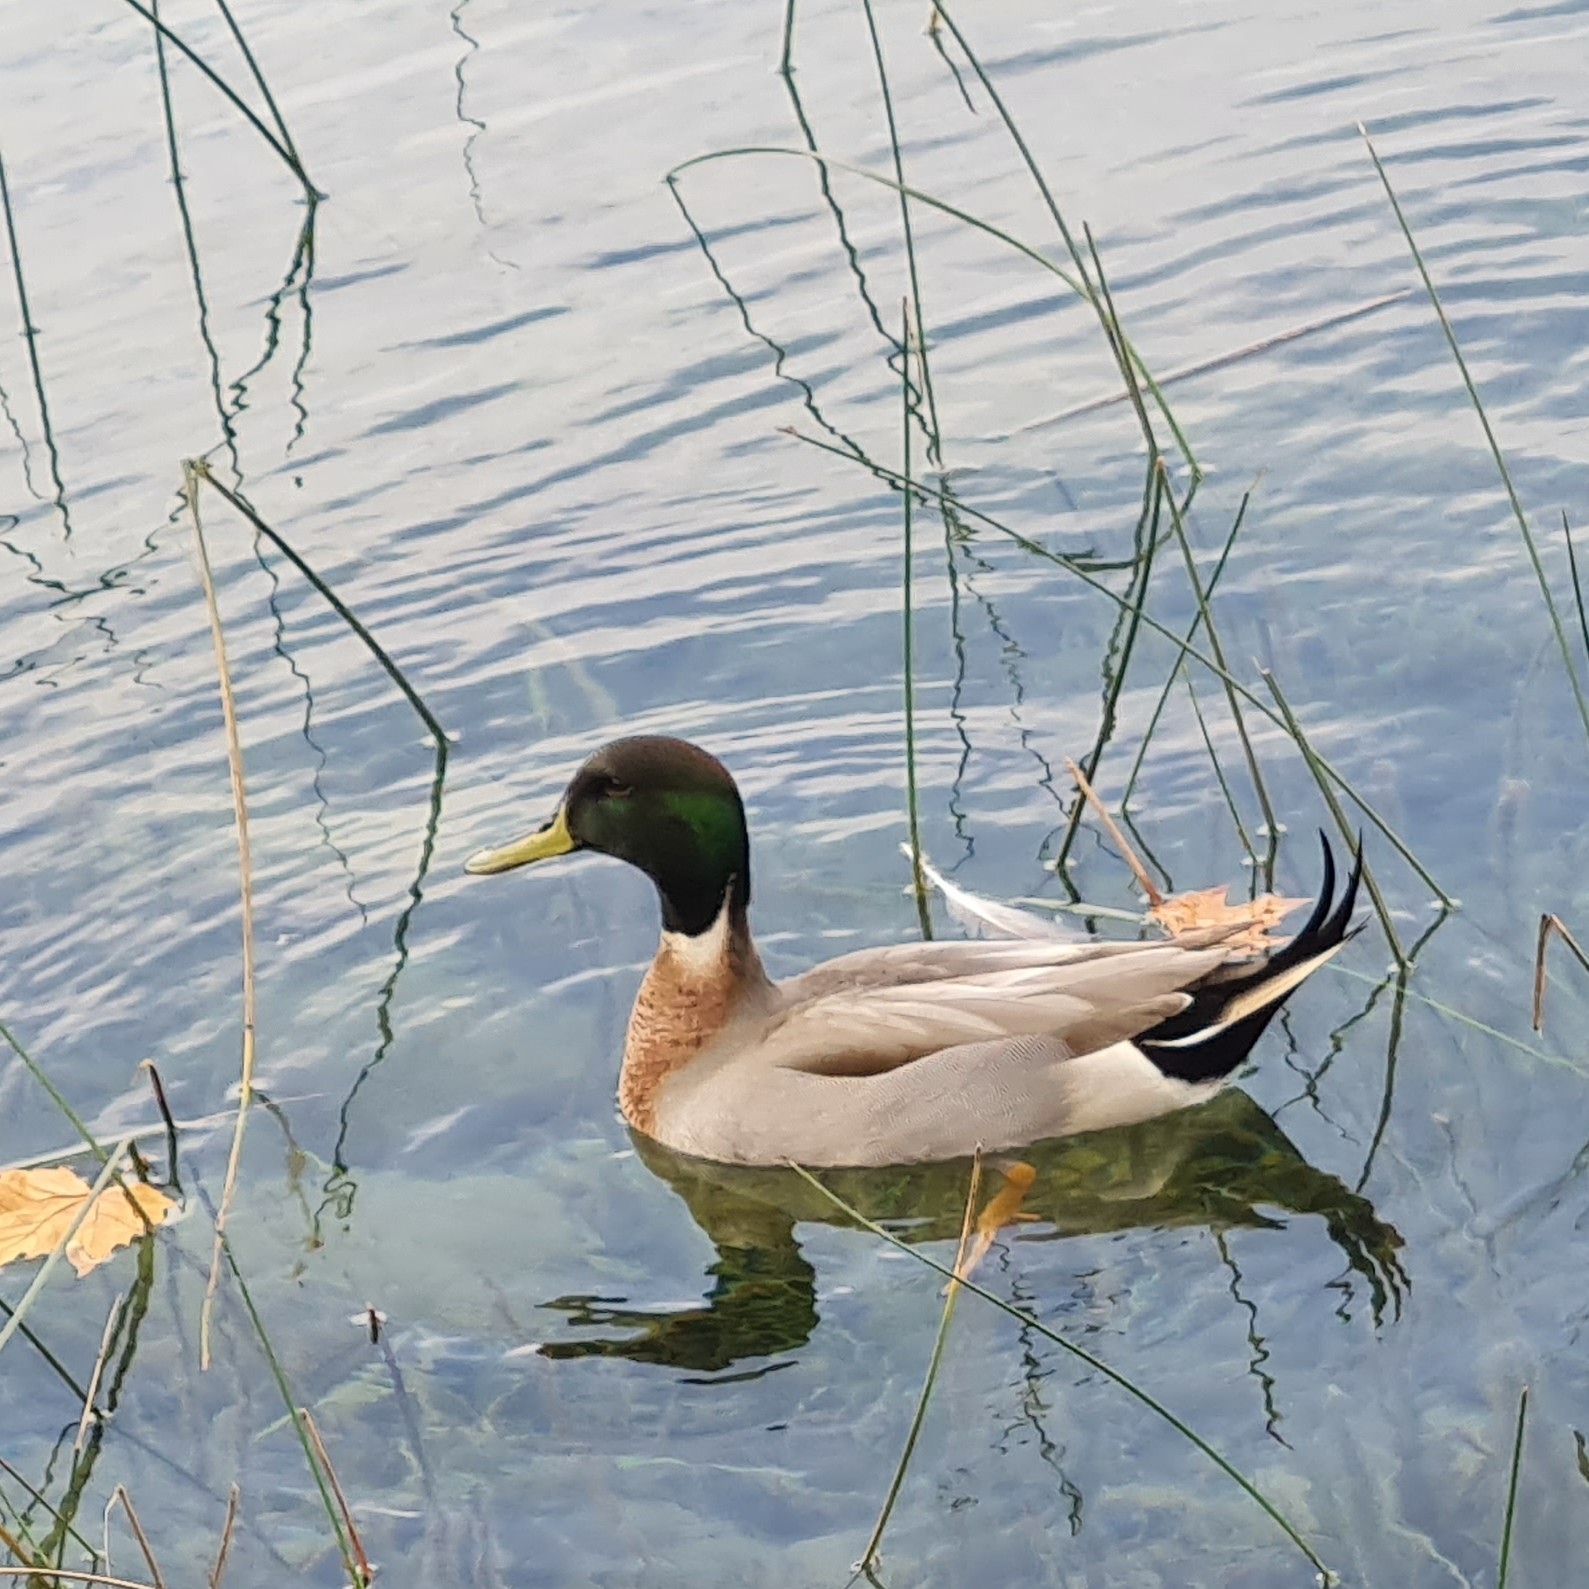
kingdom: Animalia
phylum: Chordata
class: Aves
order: Anseriformes
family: Anatidae
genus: Anas
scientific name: Anas
